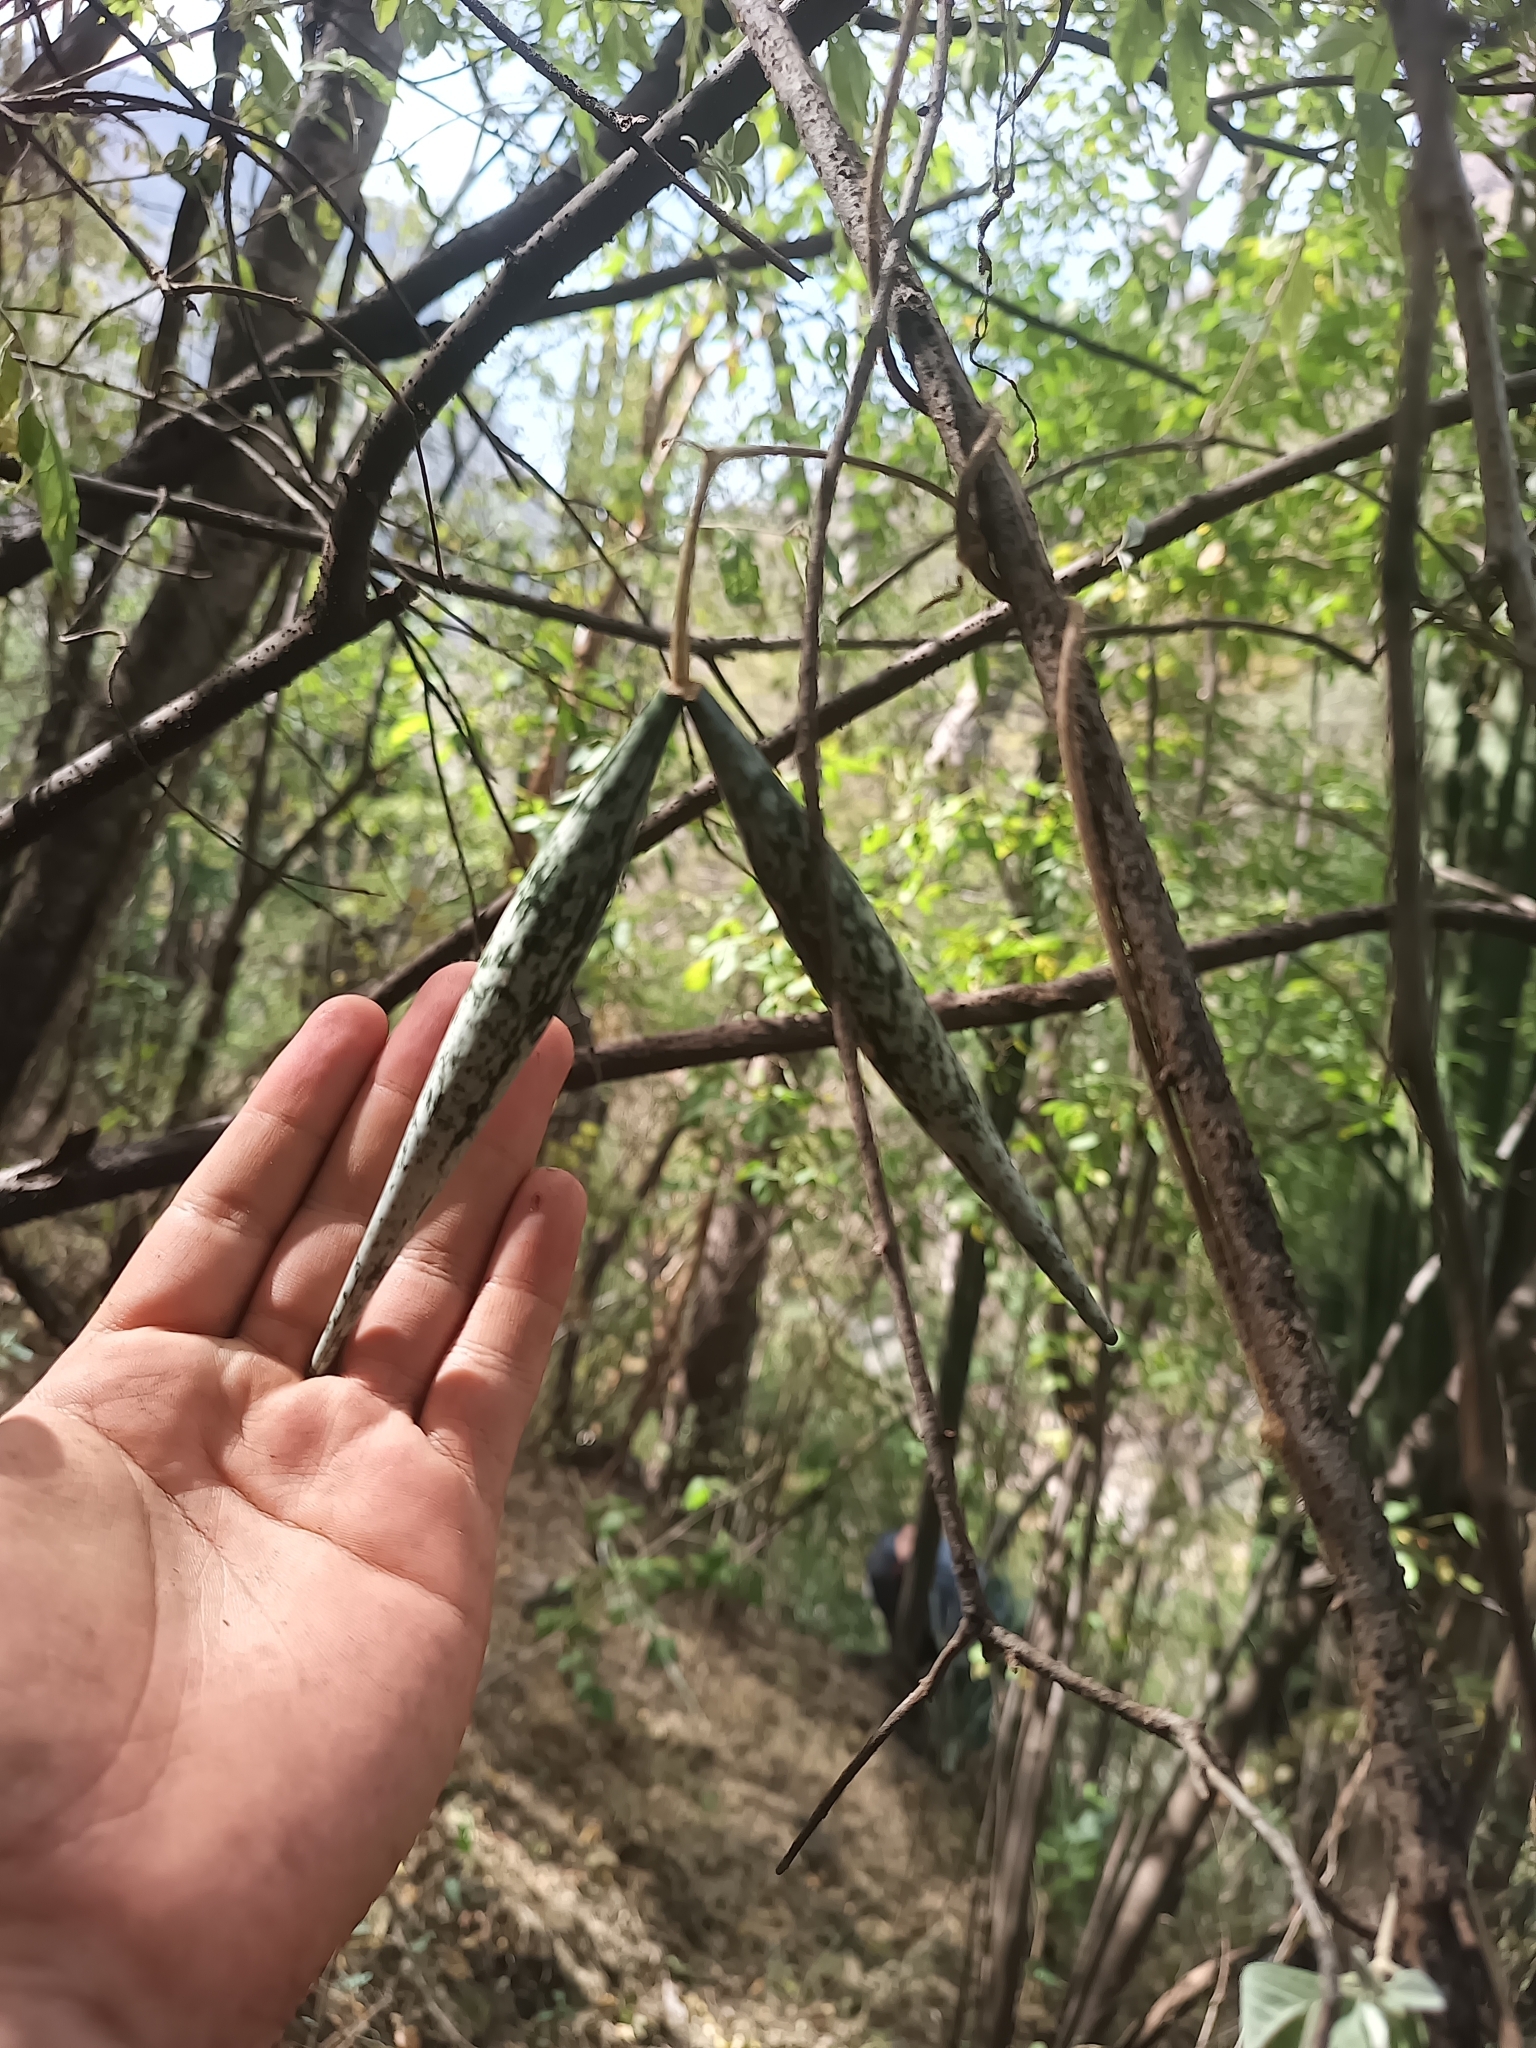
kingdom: Plantae
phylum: Tracheophyta
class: Magnoliopsida
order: Gentianales
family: Apocynaceae
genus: Polystemma
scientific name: Polystemma guatemalense
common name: Arborescente rattan
